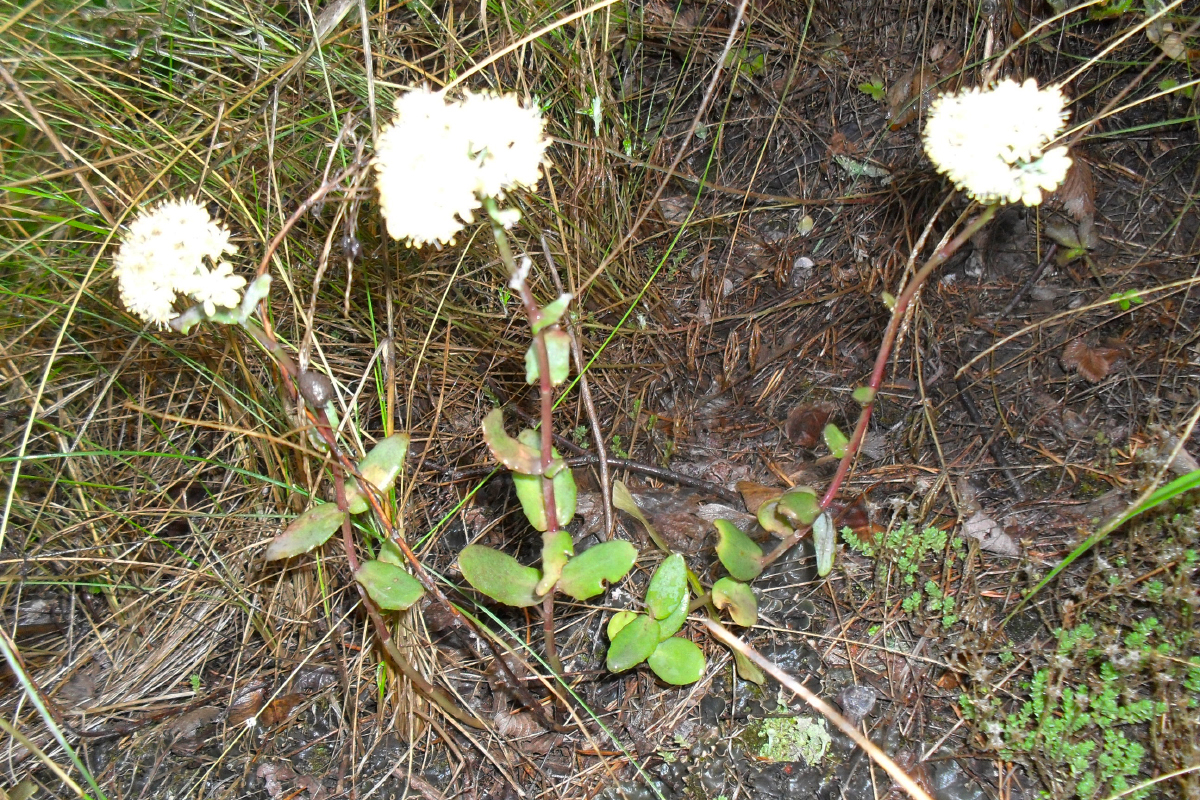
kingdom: Plantae
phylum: Tracheophyta
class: Magnoliopsida
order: Saxifragales
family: Crassulaceae
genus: Hylotelephium
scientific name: Hylotelephium maximum
